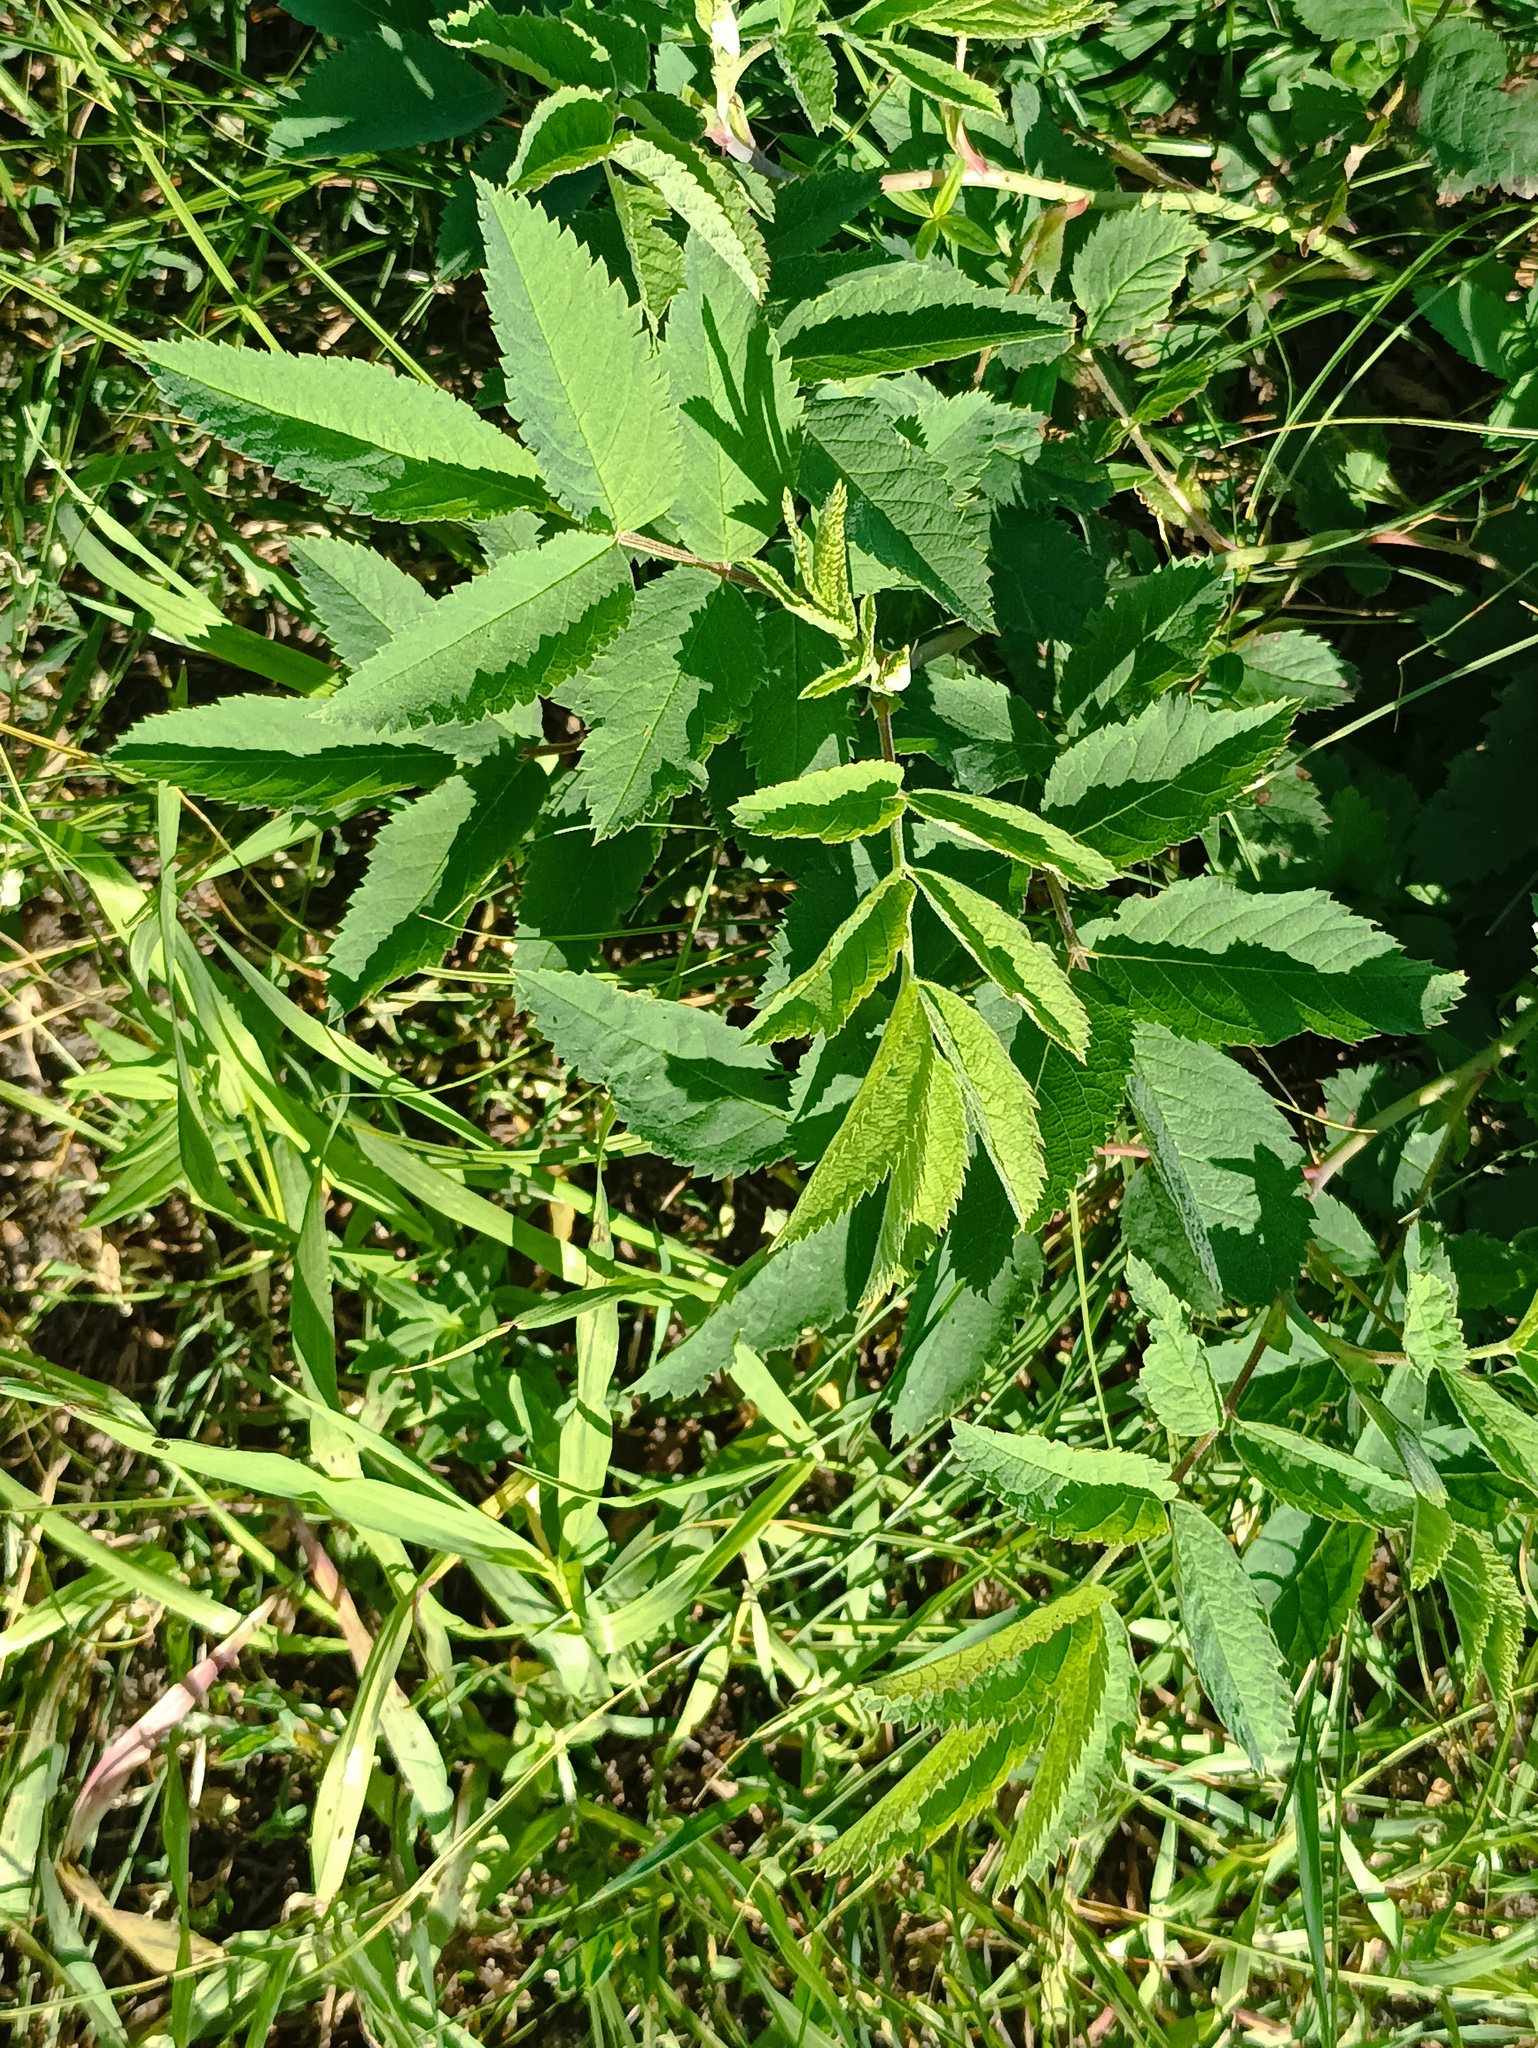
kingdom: Plantae
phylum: Tracheophyta
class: Magnoliopsida
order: Apiales
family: Apiaceae
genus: Angelica
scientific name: Angelica sylvestris
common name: Wild angelica
